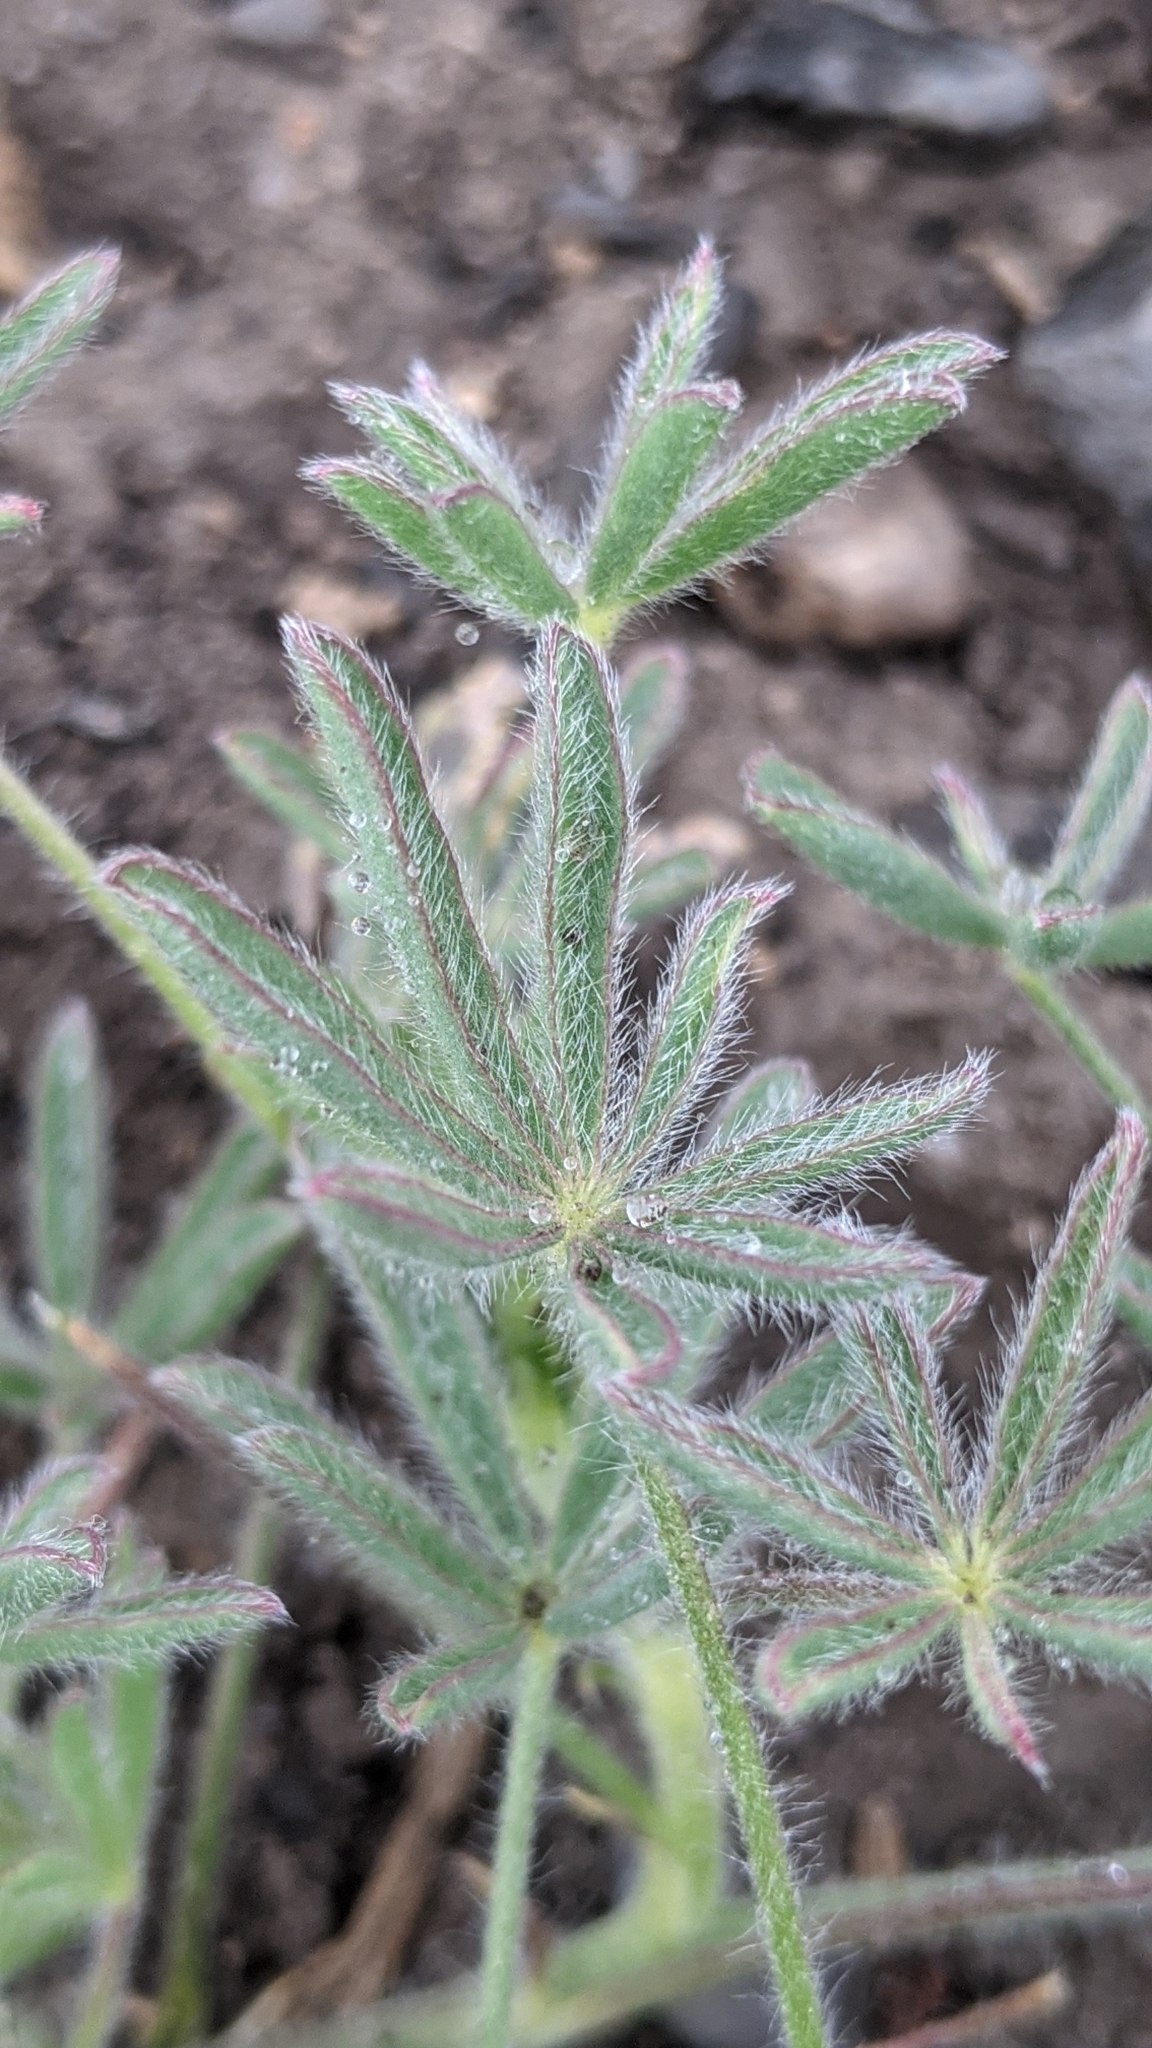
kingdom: Plantae
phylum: Tracheophyta
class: Magnoliopsida
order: Fabales
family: Fabaceae
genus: Lupinus
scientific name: Lupinus bicolor
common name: Miniature lupine
